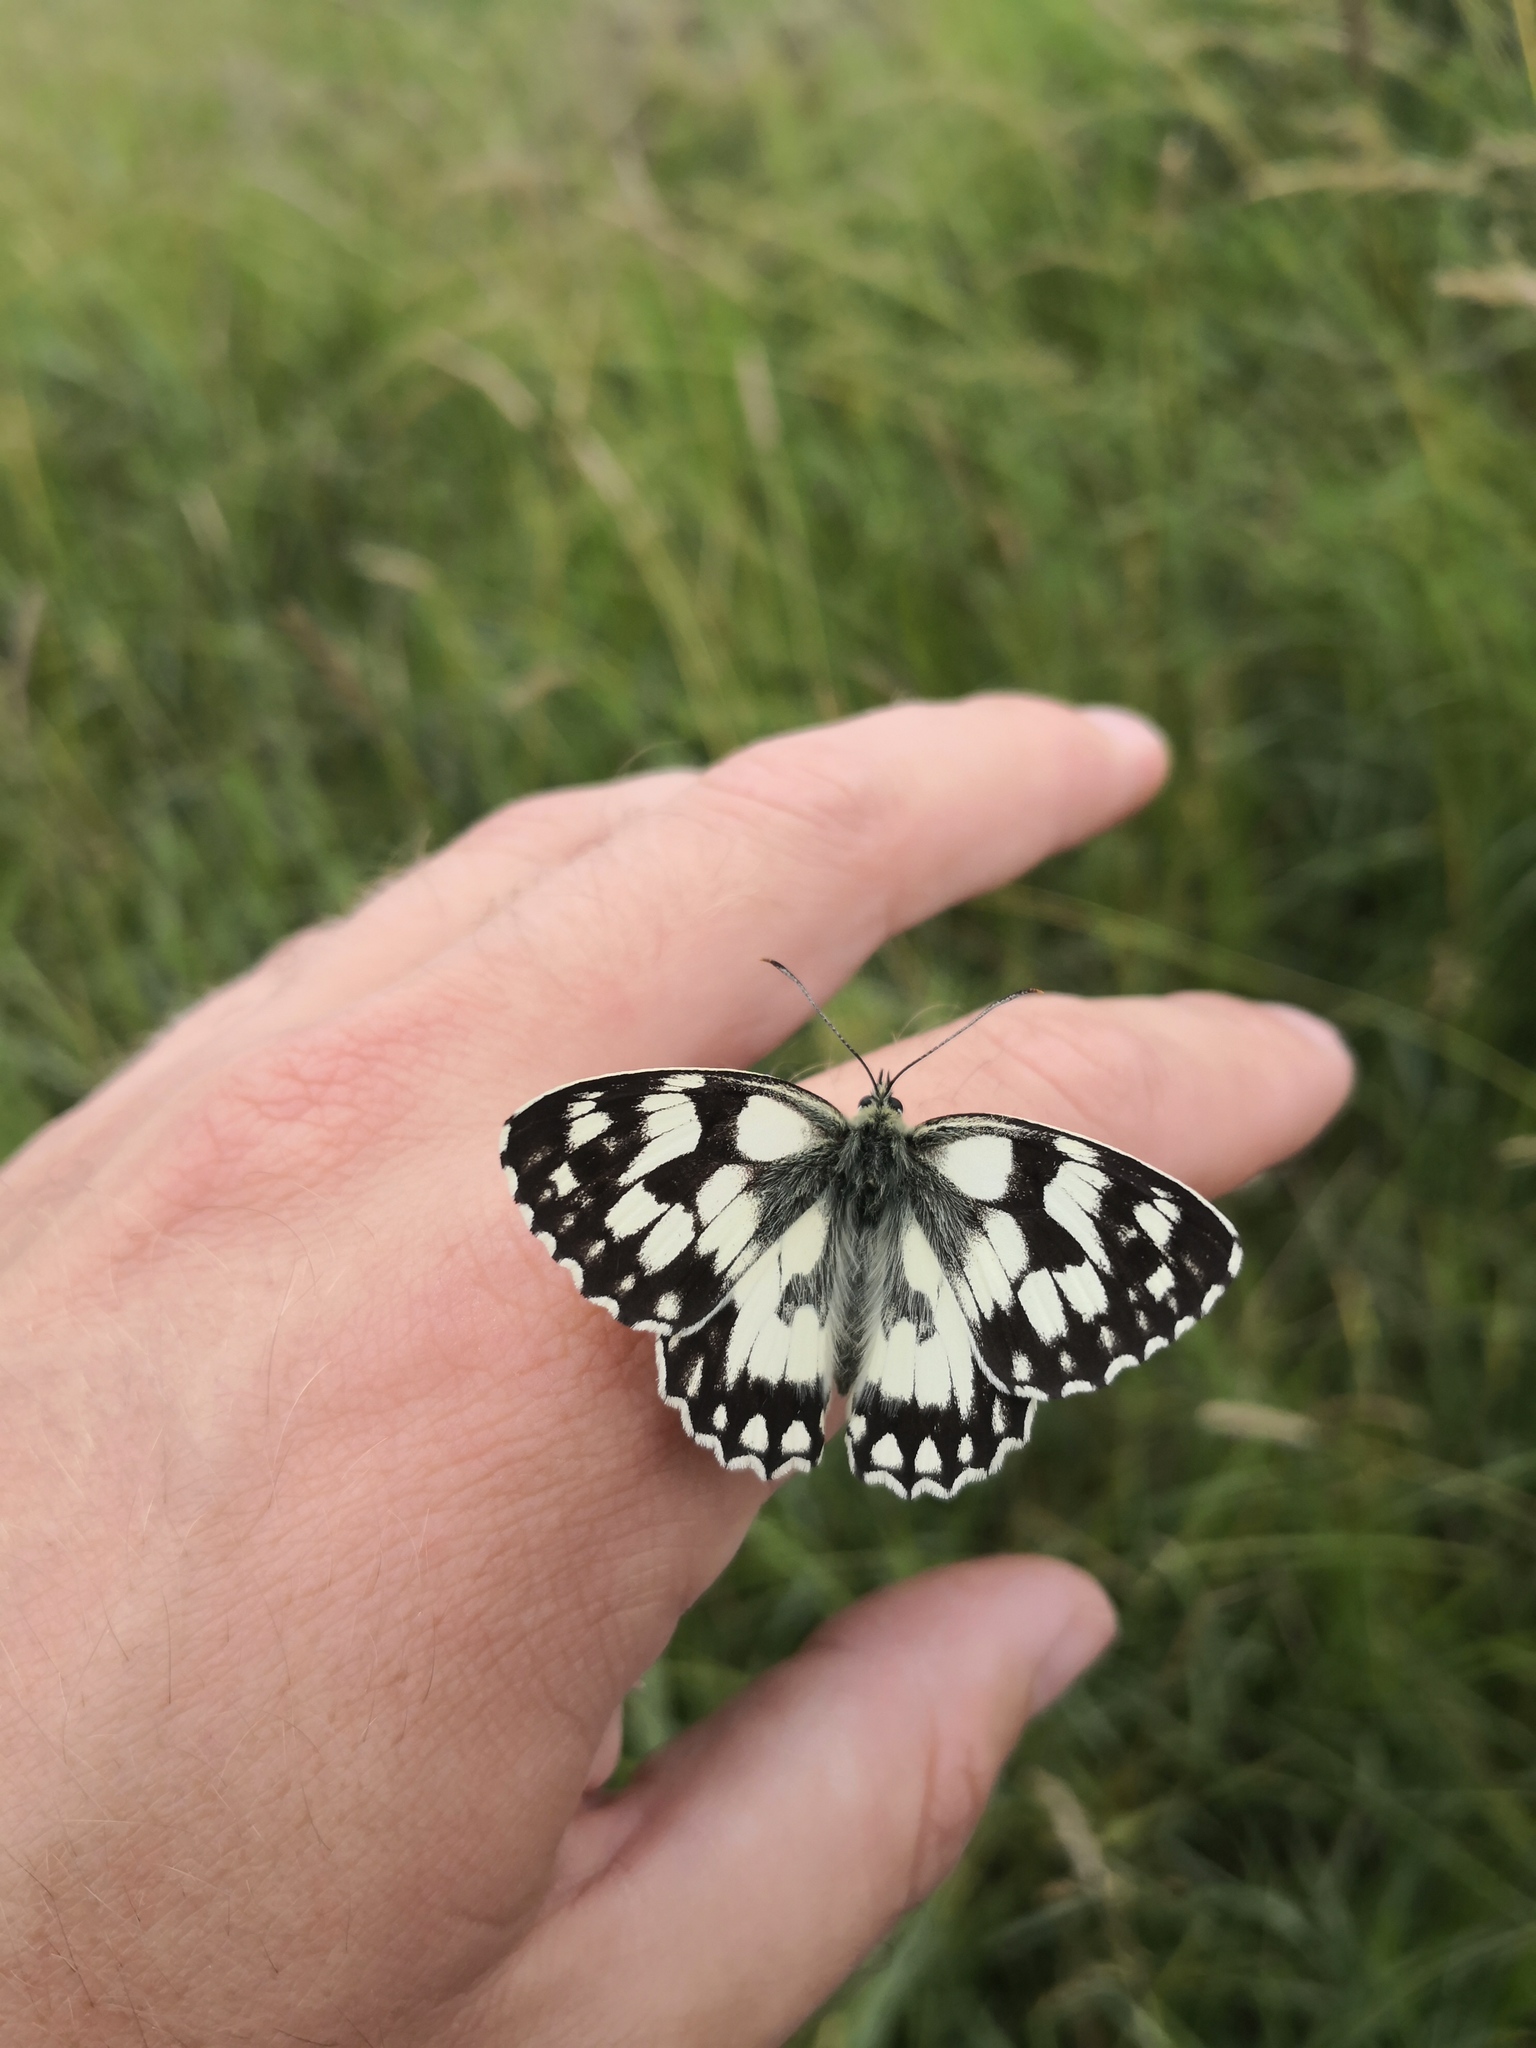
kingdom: Animalia
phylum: Arthropoda
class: Insecta
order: Lepidoptera
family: Nymphalidae
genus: Melanargia
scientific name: Melanargia galathea
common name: Marbled white
